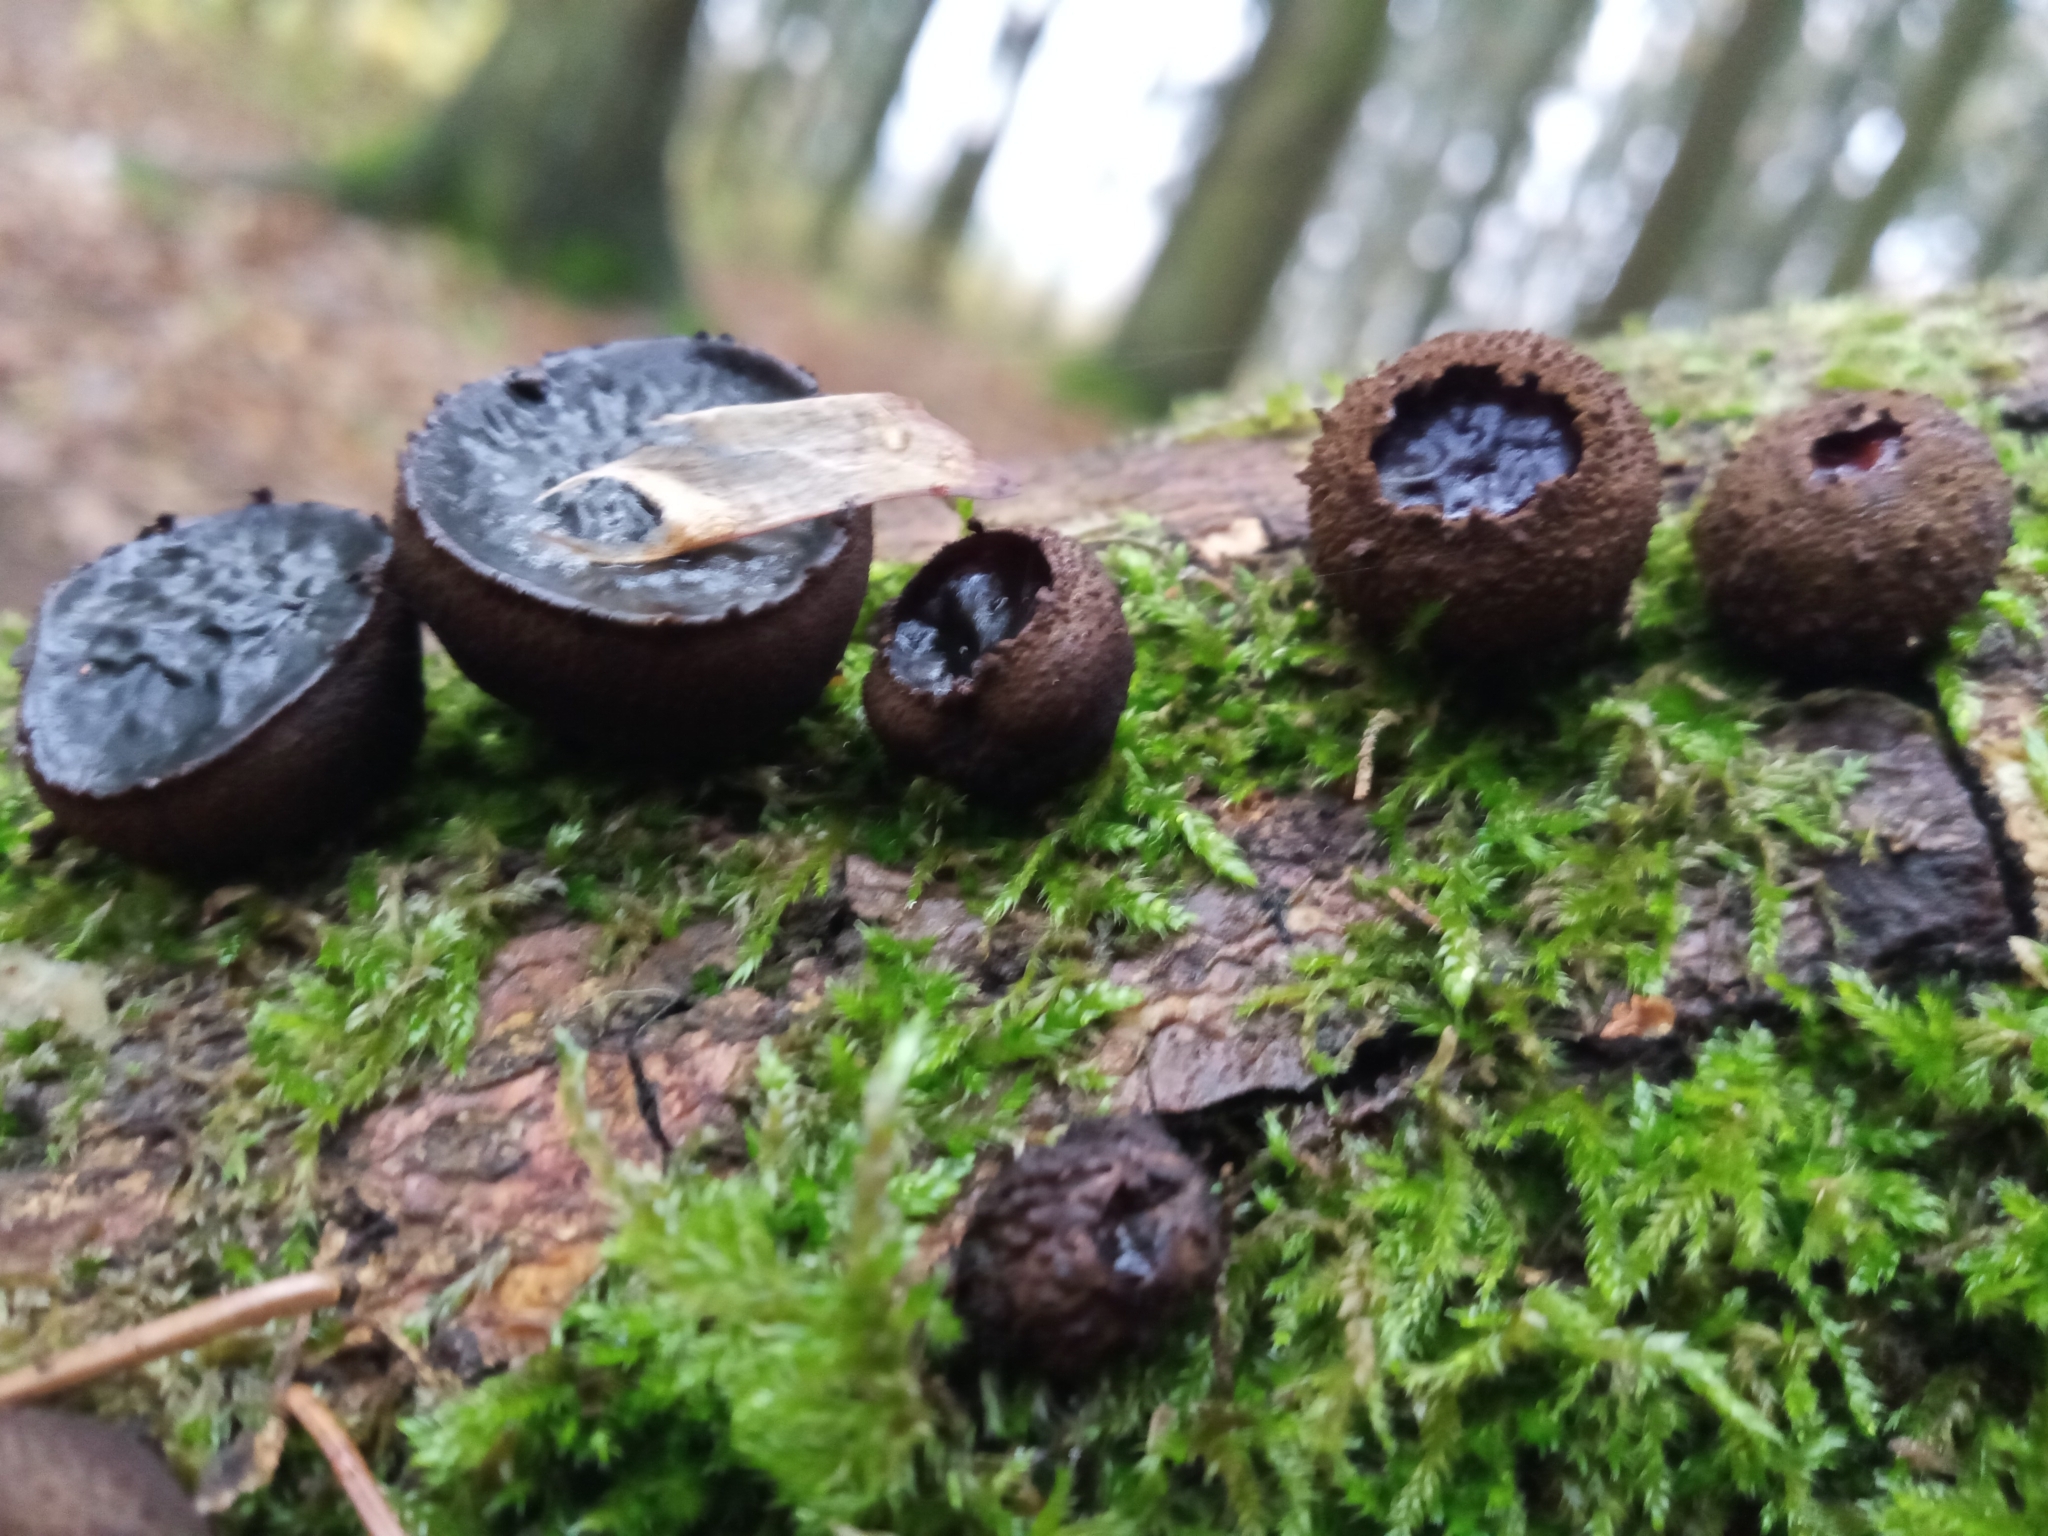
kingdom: Fungi
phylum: Ascomycota
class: Leotiomycetes
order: Phacidiales
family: Phacidiaceae
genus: Bulgaria
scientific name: Bulgaria inquinans
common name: Black bulgar
